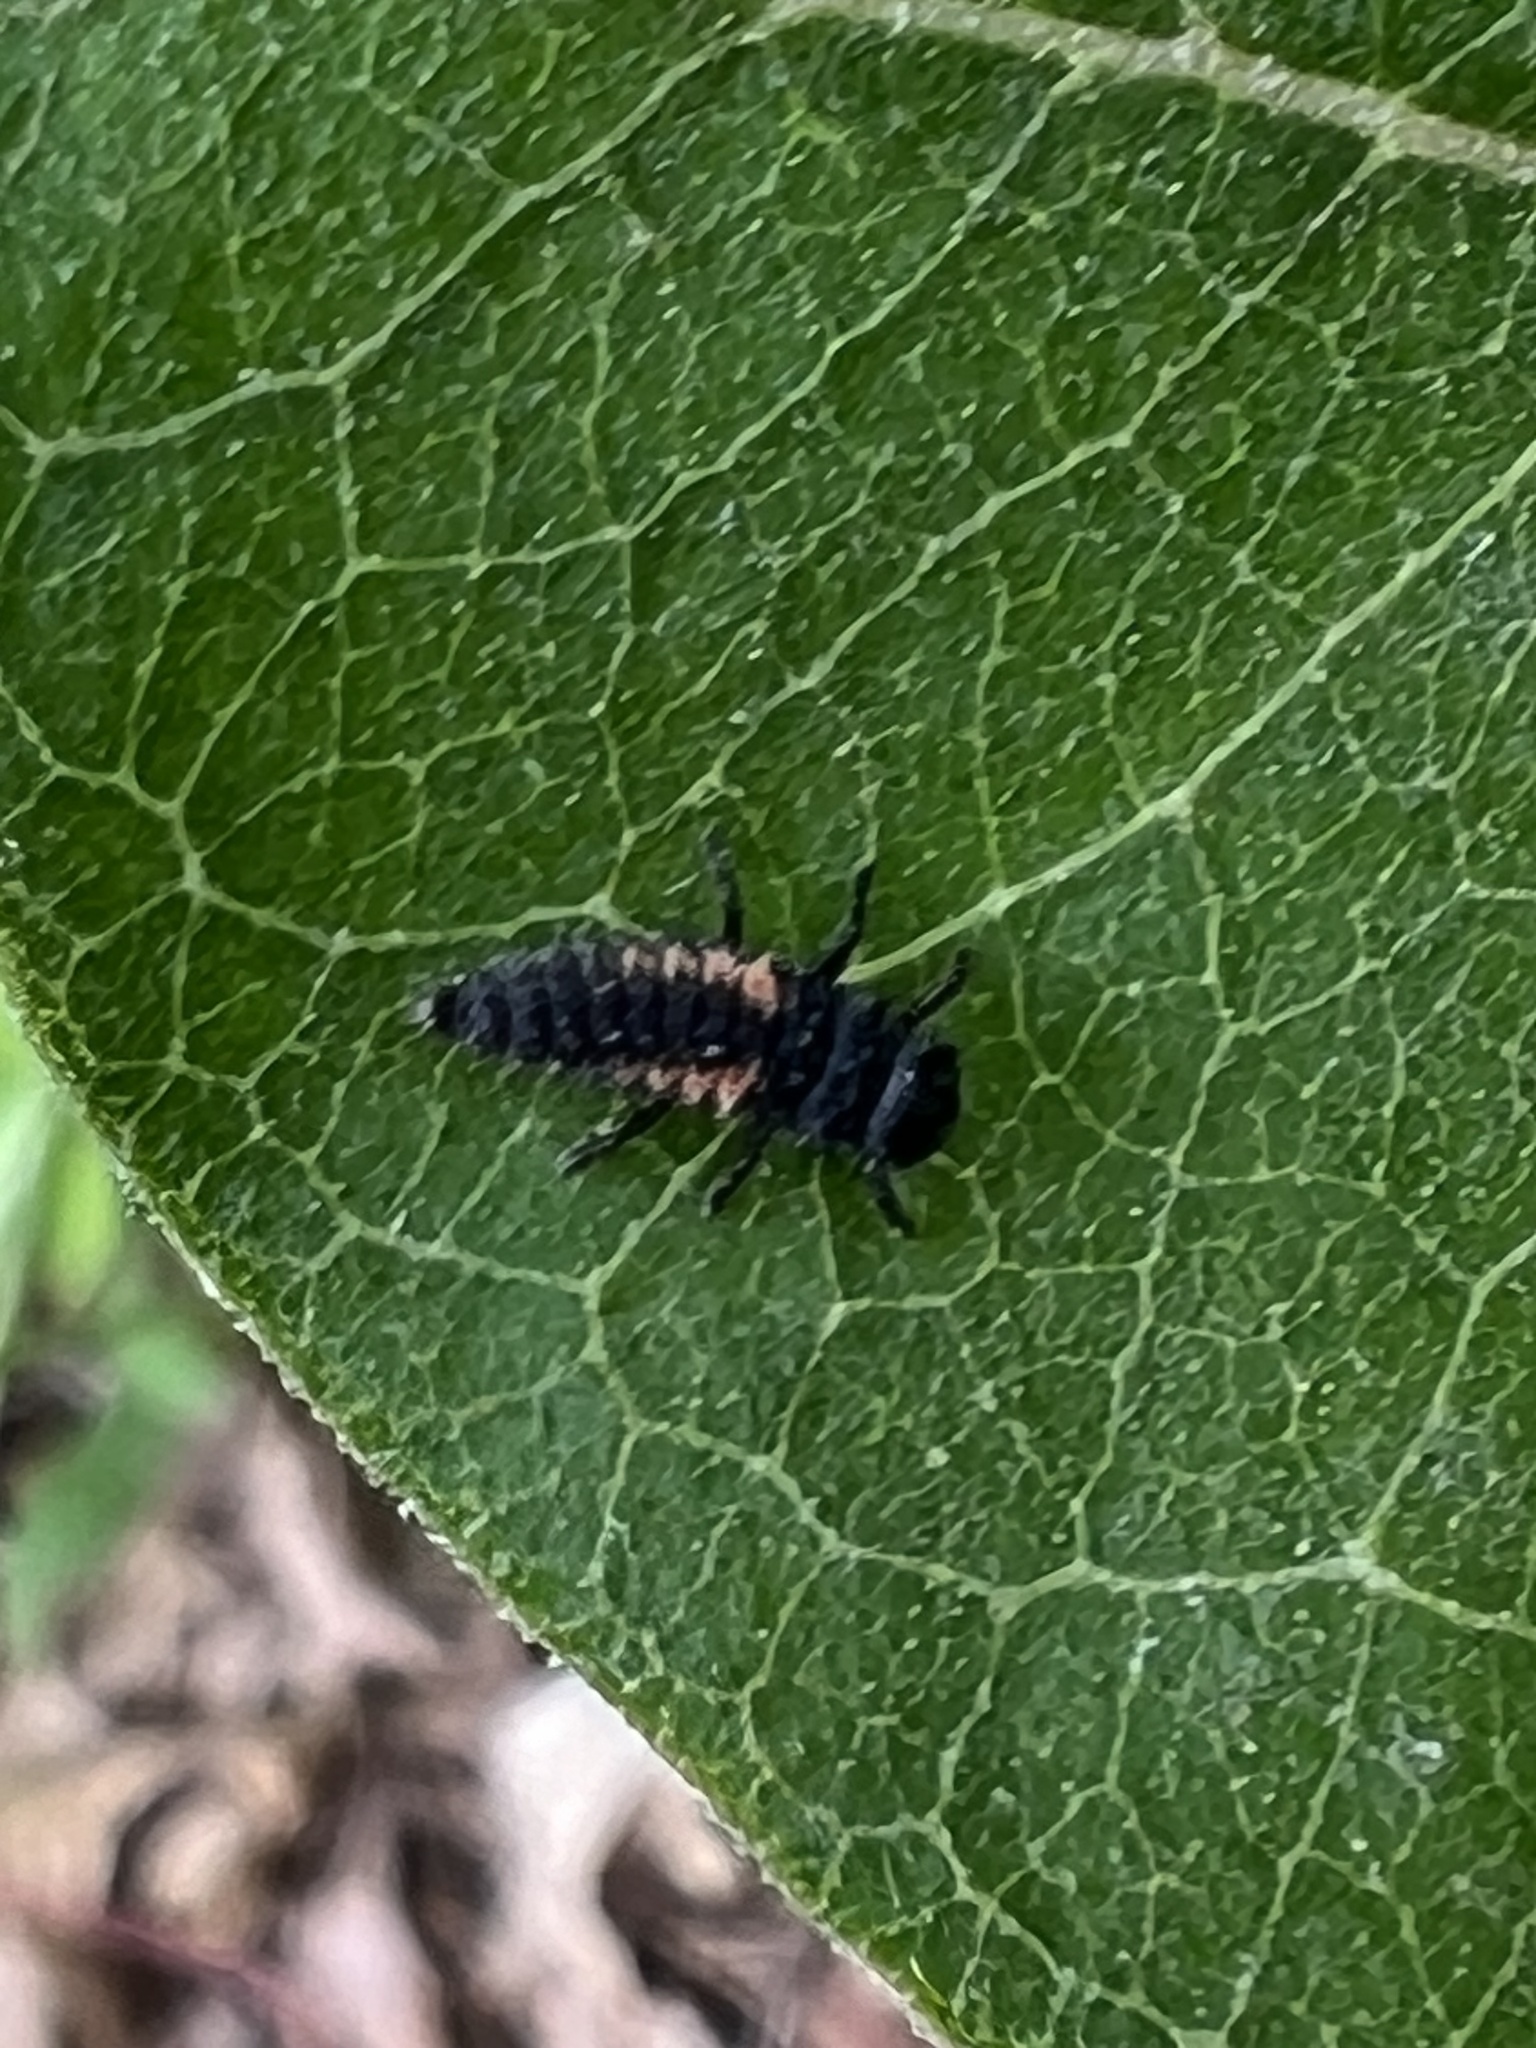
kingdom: Animalia
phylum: Arthropoda
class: Insecta
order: Coleoptera
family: Coccinellidae
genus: Harmonia
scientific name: Harmonia axyridis
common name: Harlequin ladybird
